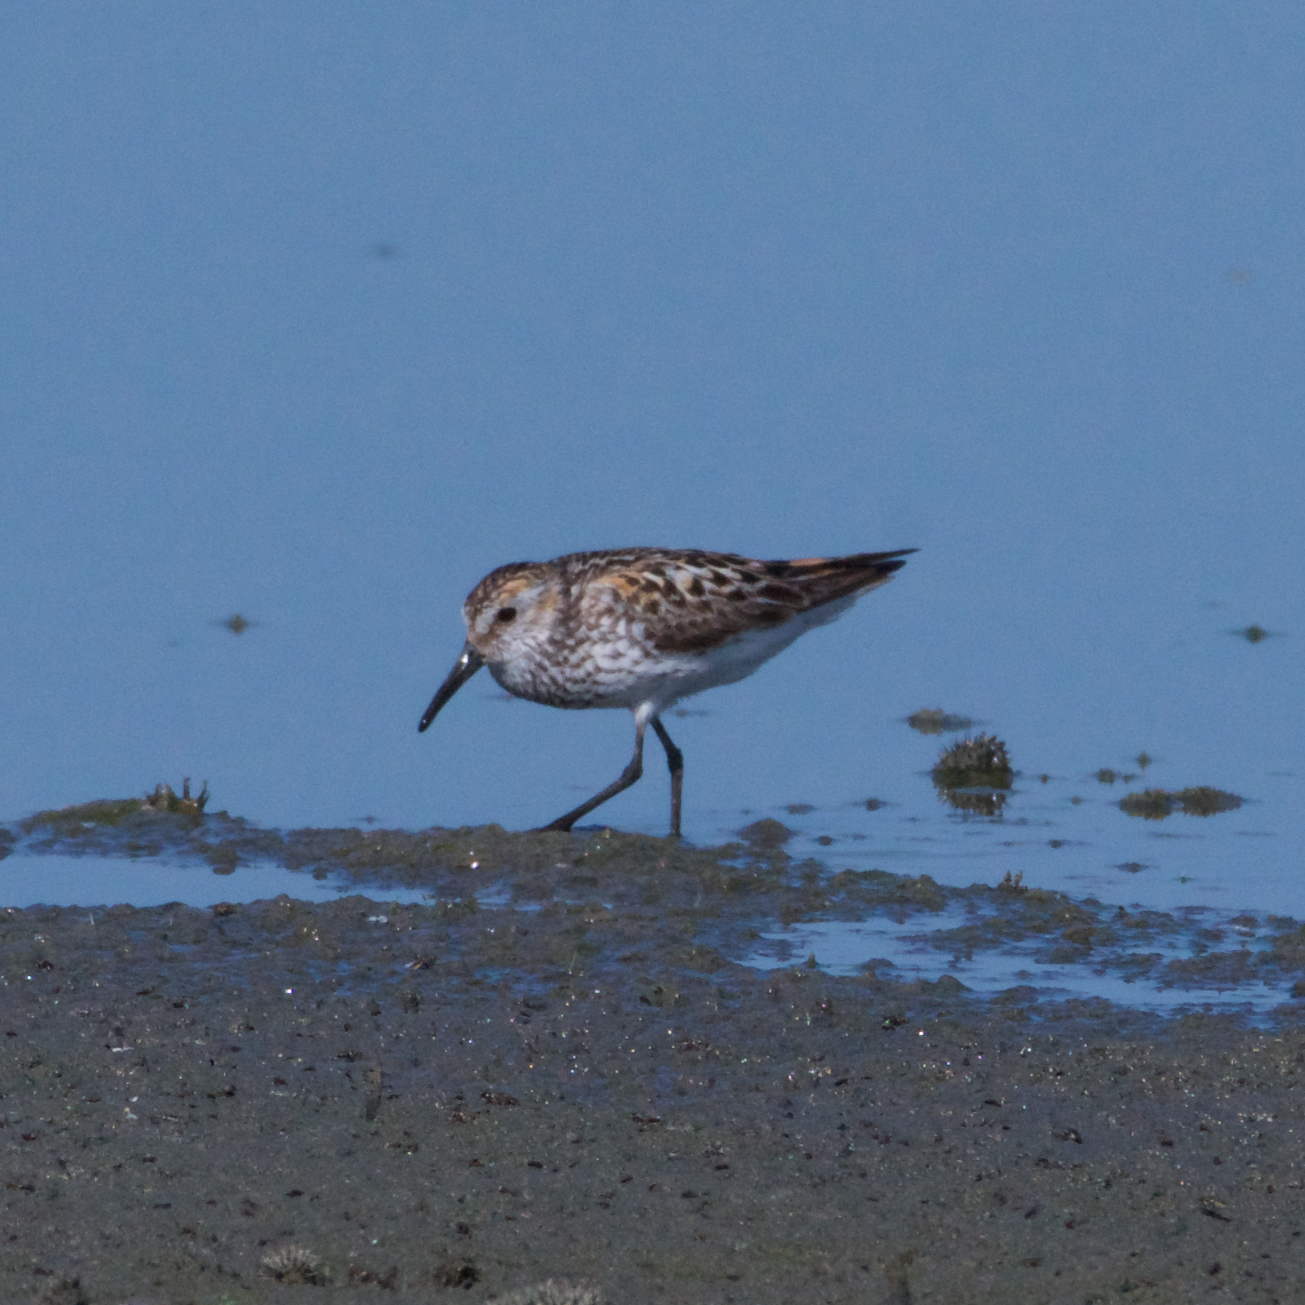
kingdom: Animalia
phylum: Chordata
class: Aves
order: Charadriiformes
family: Scolopacidae
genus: Calidris
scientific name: Calidris mauri
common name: Western sandpiper
